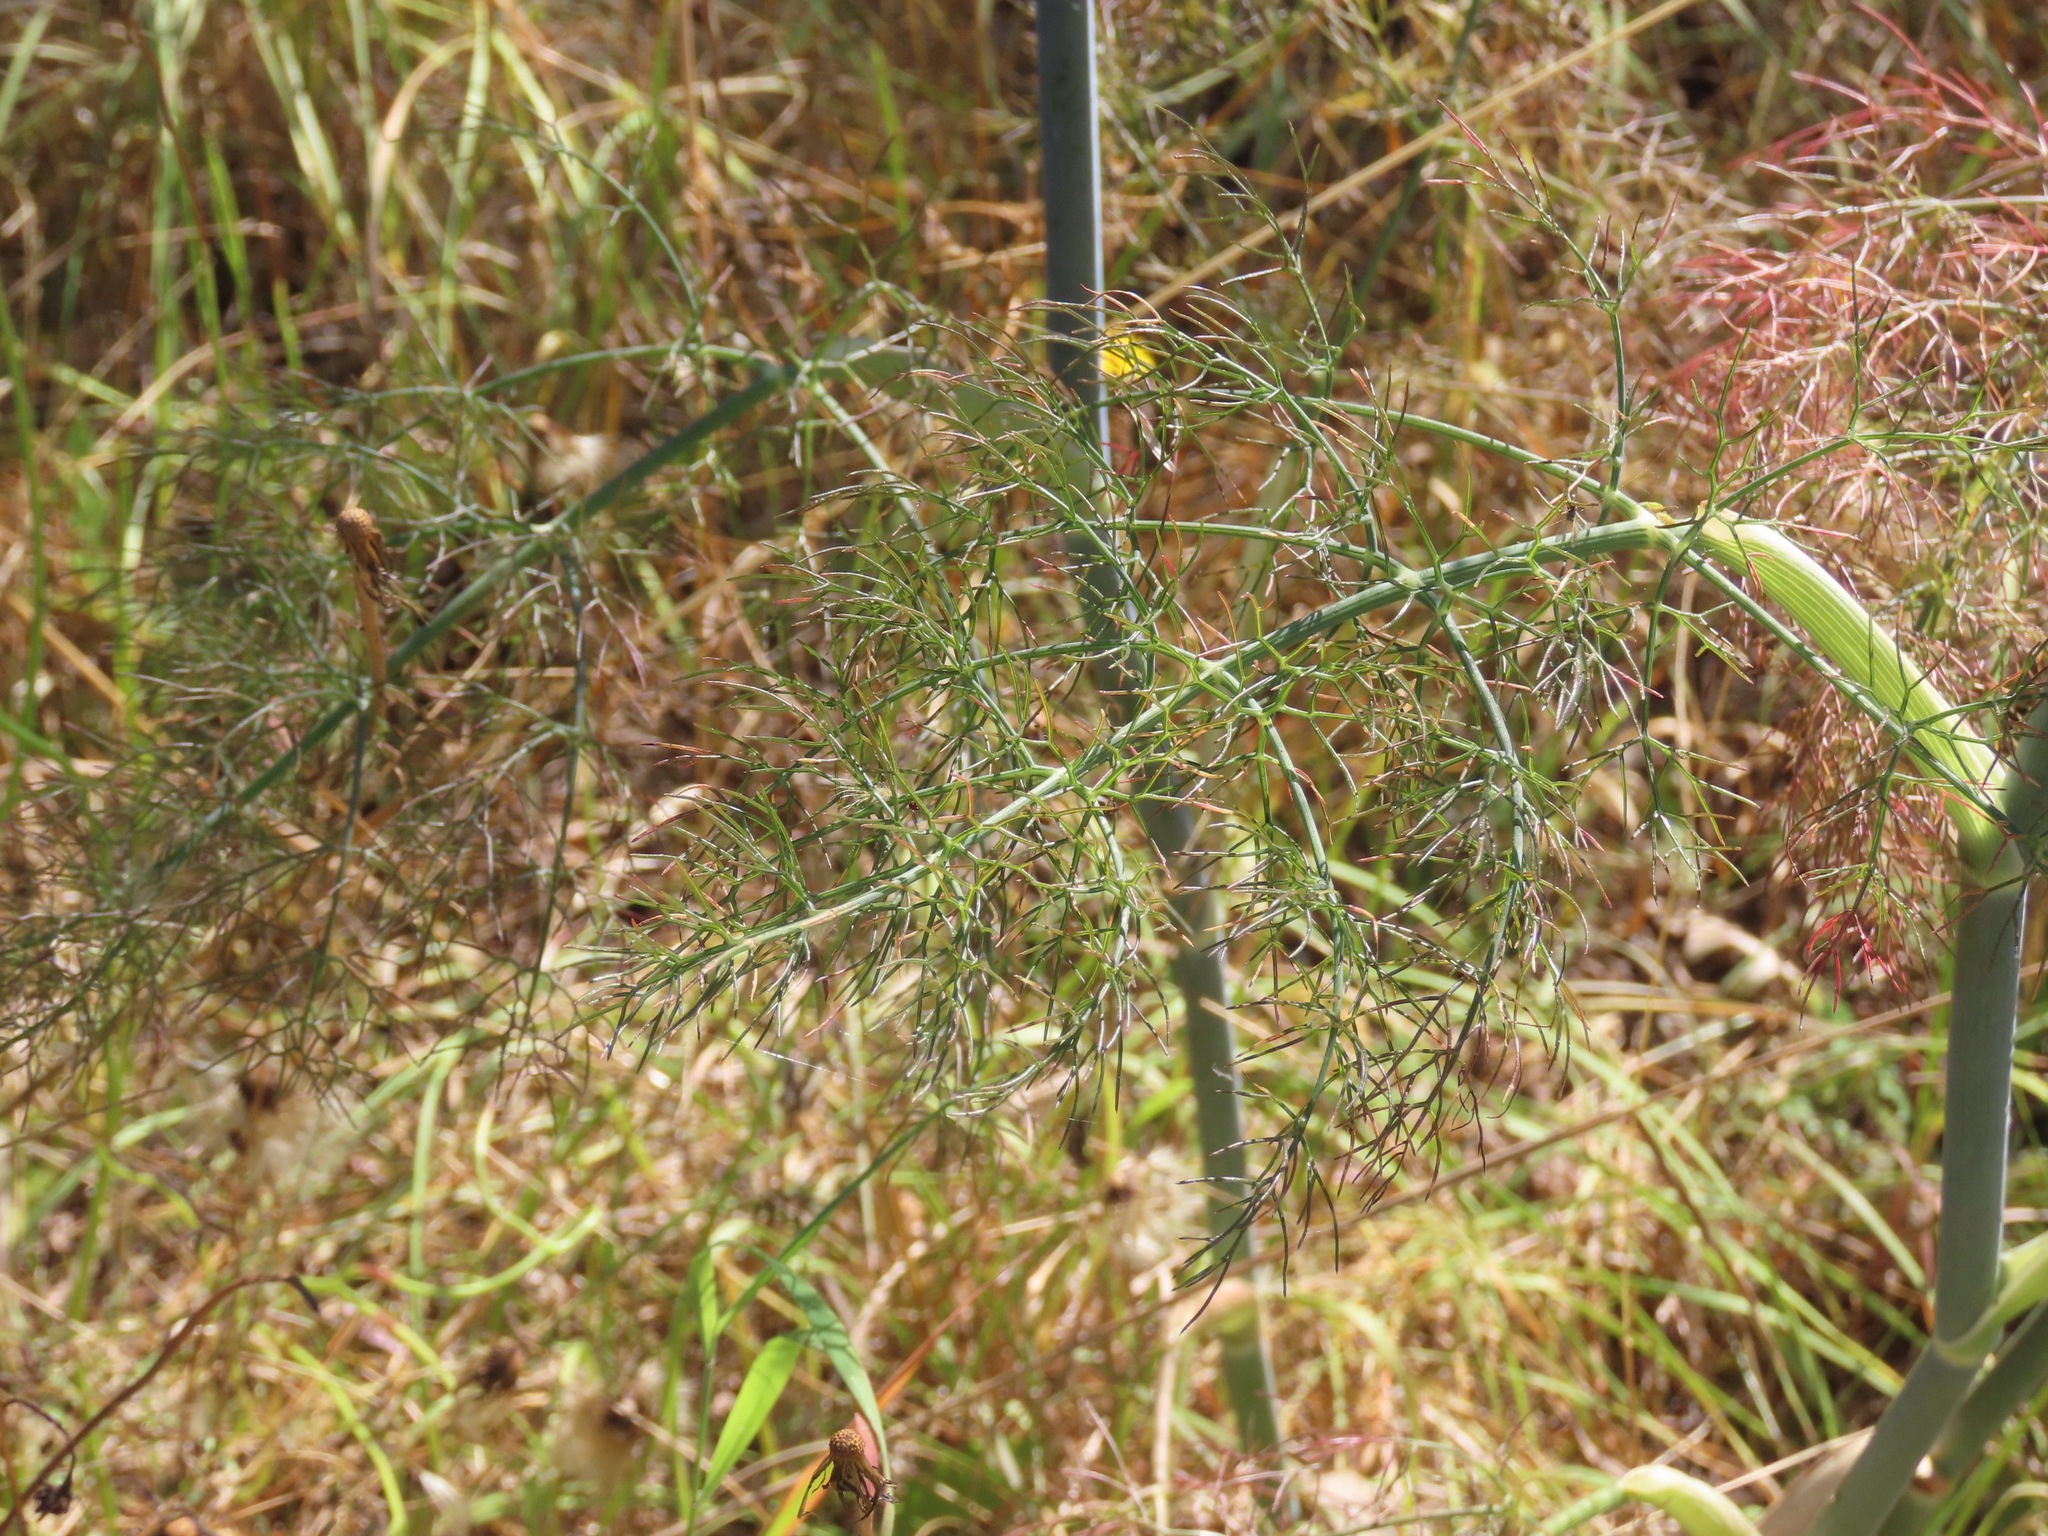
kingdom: Plantae
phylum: Tracheophyta
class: Magnoliopsida
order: Apiales
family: Apiaceae
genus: Foeniculum
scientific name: Foeniculum vulgare
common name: Fennel
